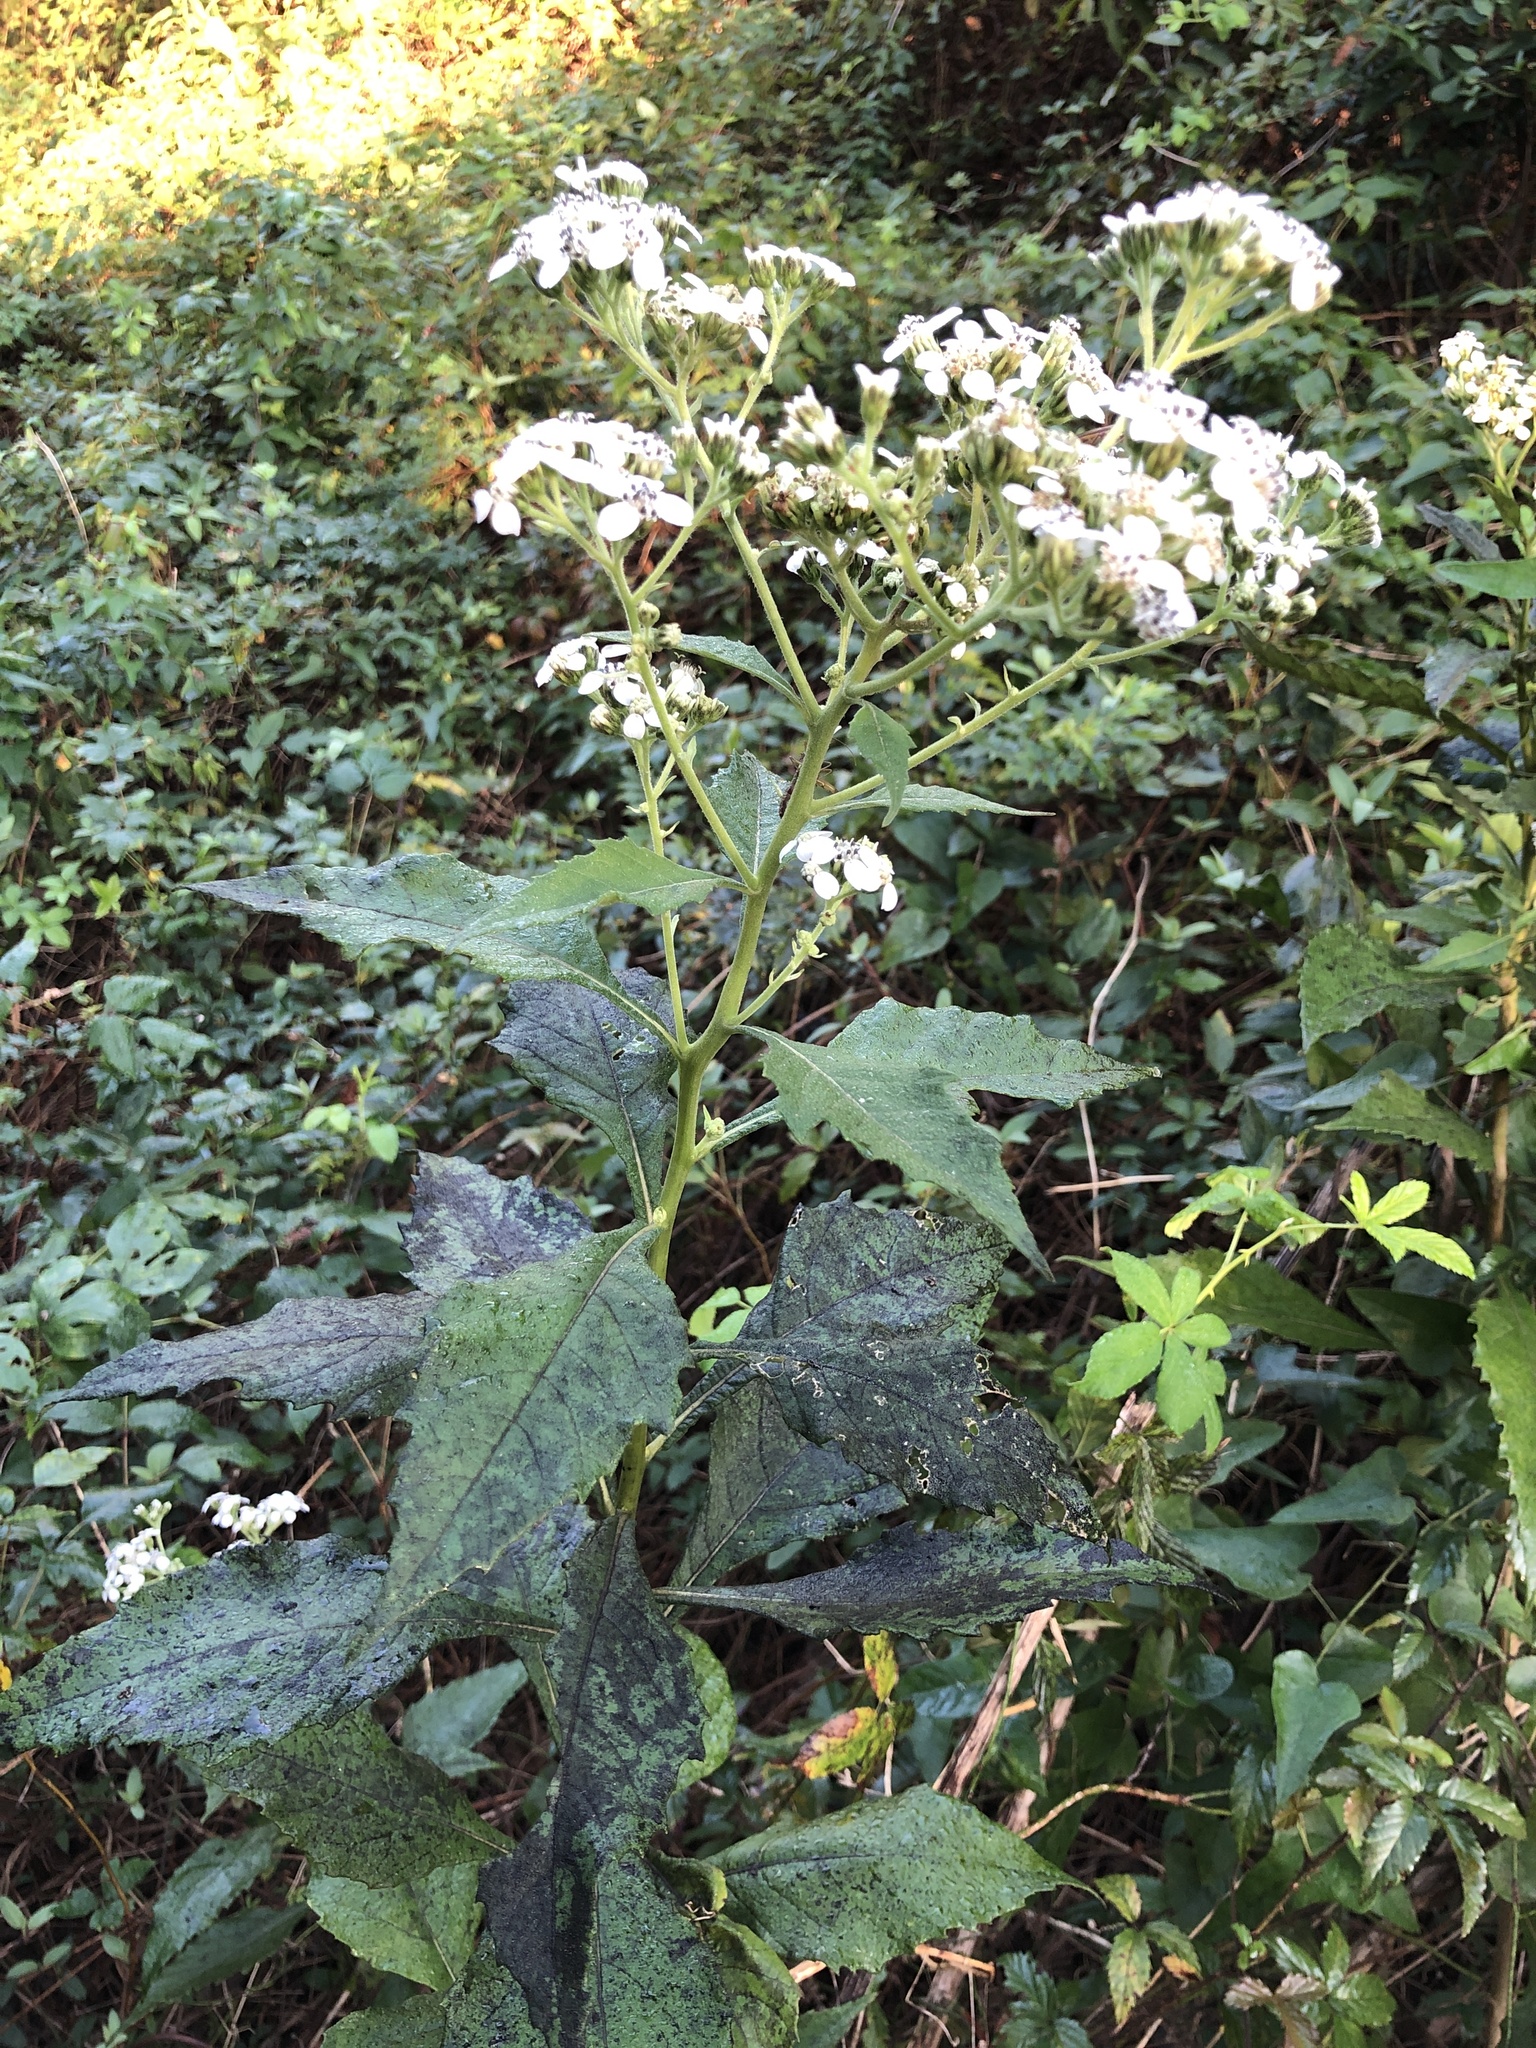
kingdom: Plantae
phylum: Tracheophyta
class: Magnoliopsida
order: Asterales
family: Asteraceae
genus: Verbesina
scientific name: Verbesina virginica
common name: Frostweed
